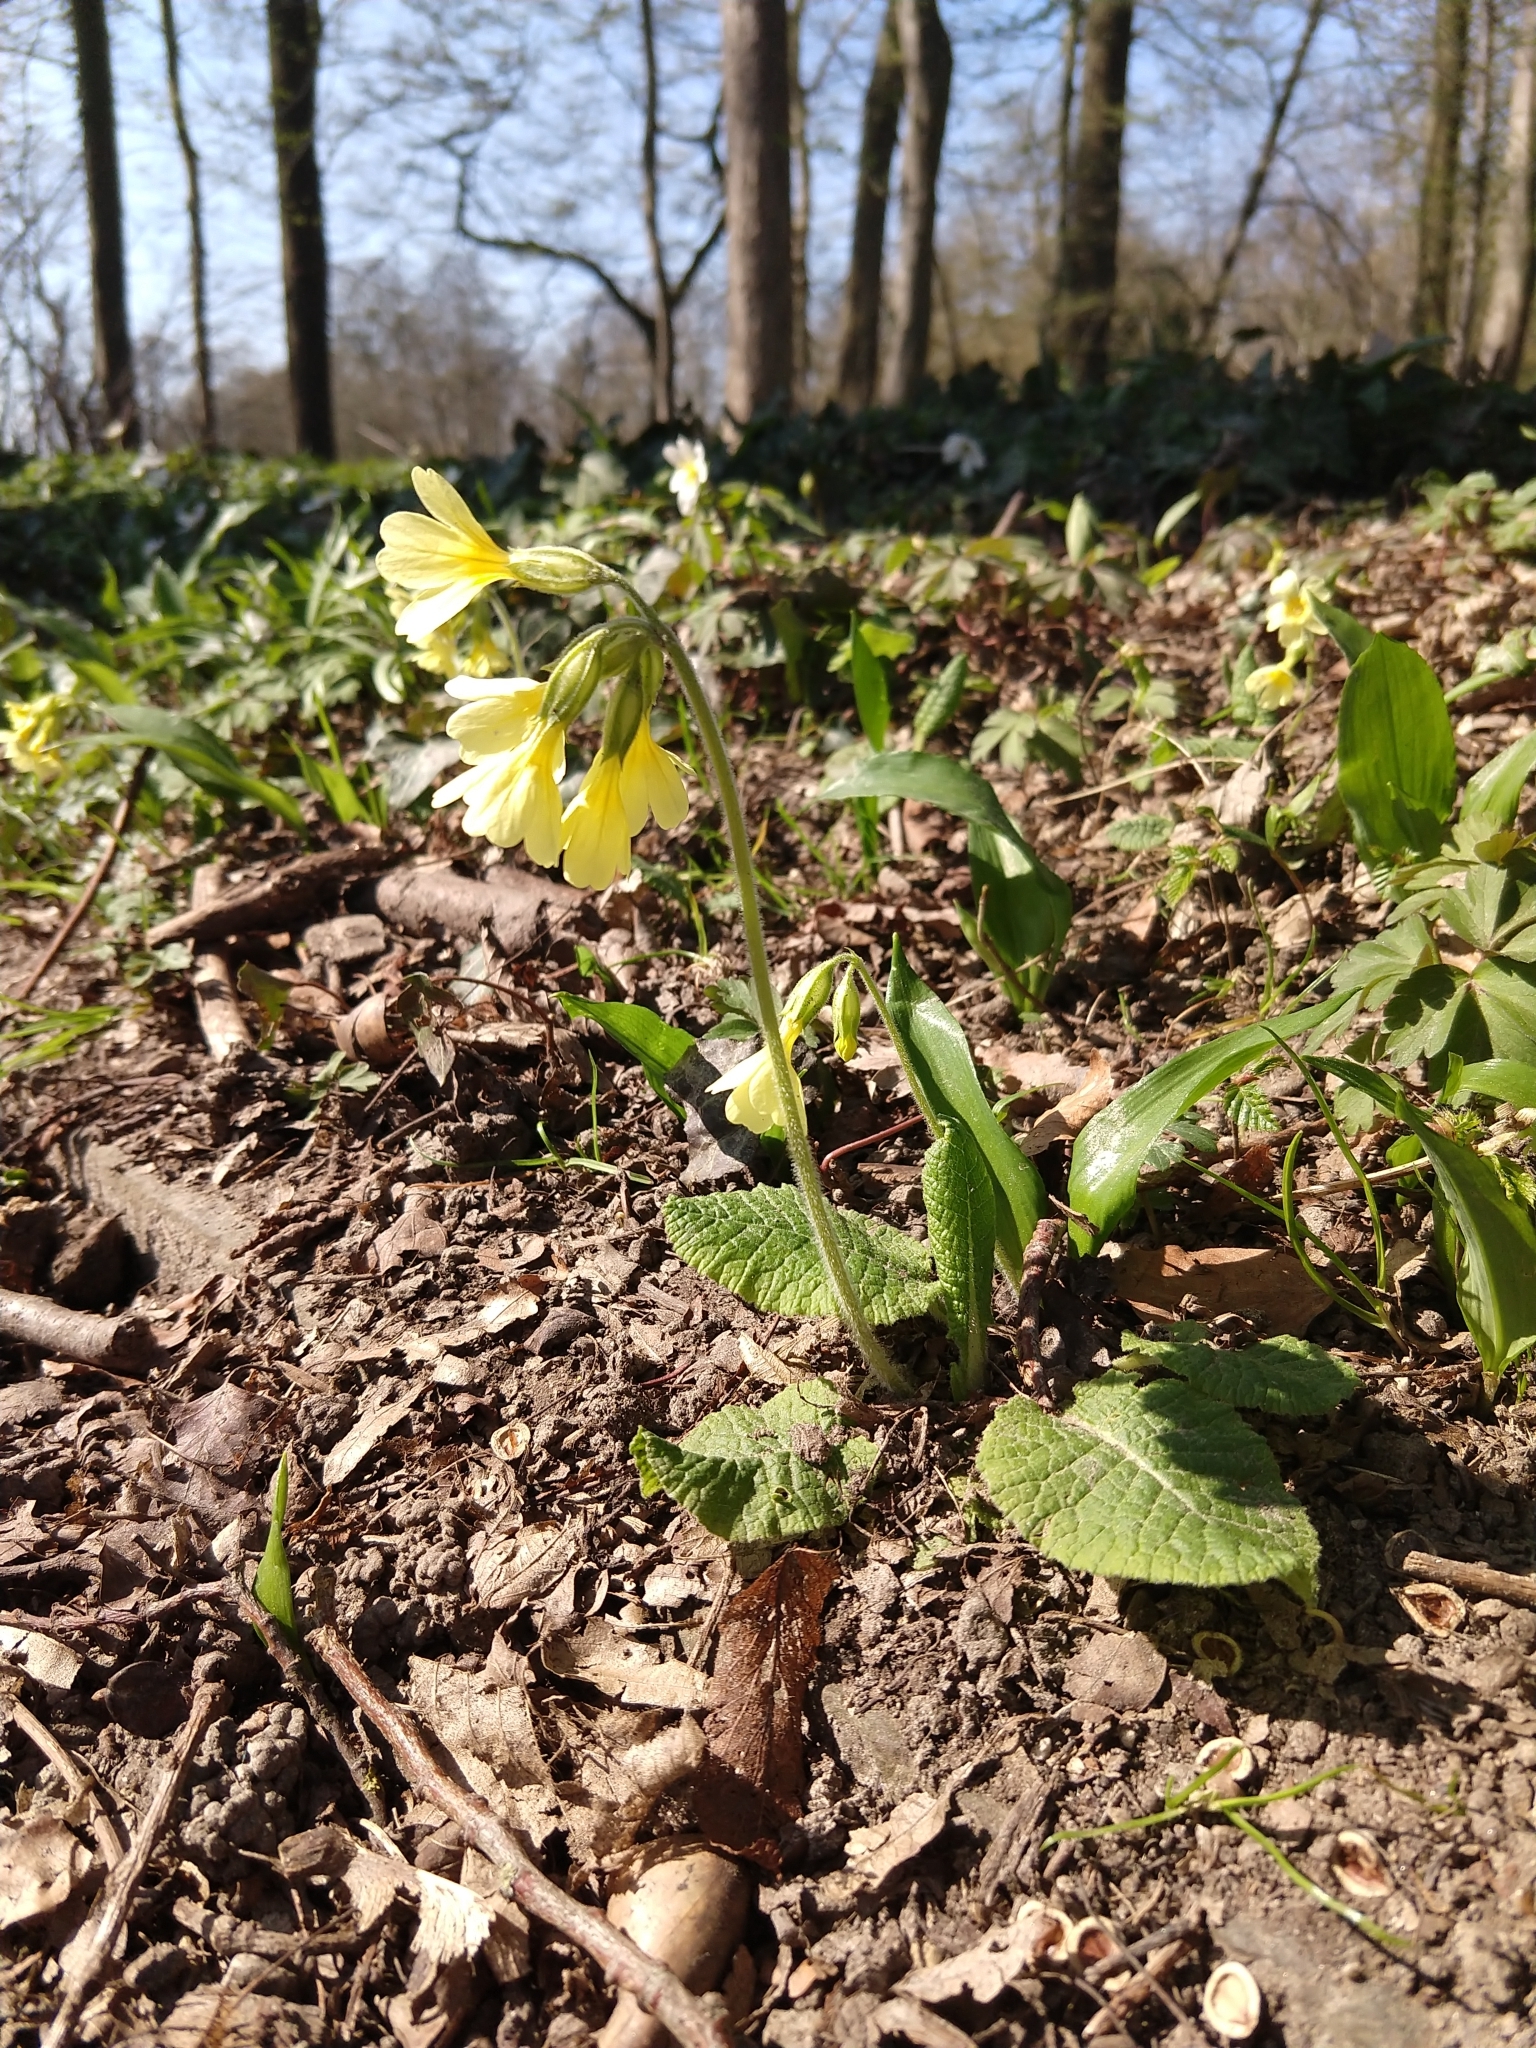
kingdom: Plantae
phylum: Tracheophyta
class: Magnoliopsida
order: Ericales
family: Primulaceae
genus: Primula
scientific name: Primula elatior
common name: Oxlip
